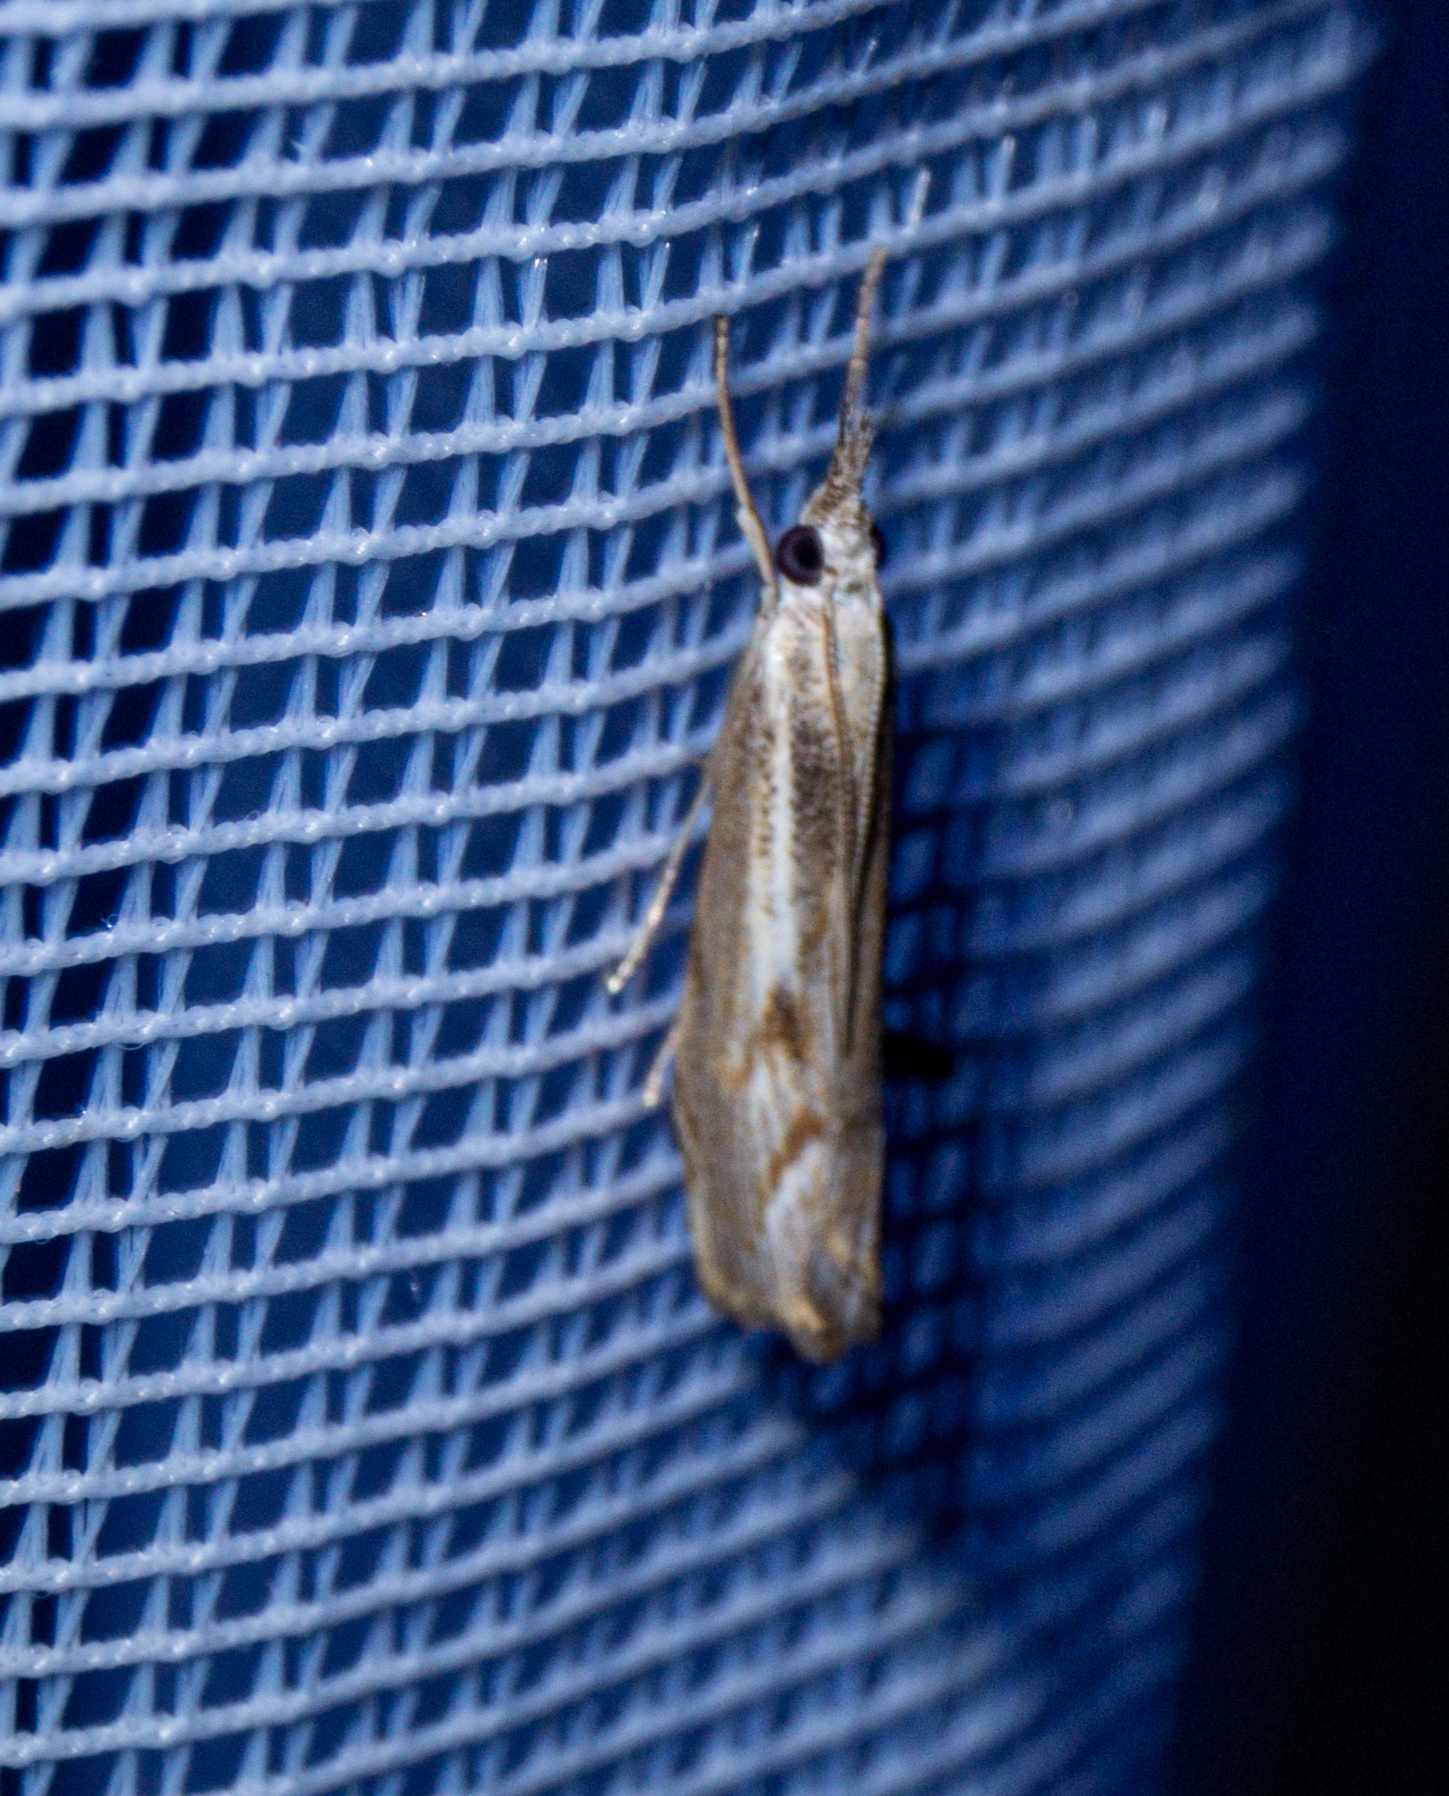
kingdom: Animalia
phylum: Arthropoda
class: Insecta
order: Lepidoptera
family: Crambidae
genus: Agriphila
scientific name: Agriphila geniculea
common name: Elbow-stripe grass-veneer
